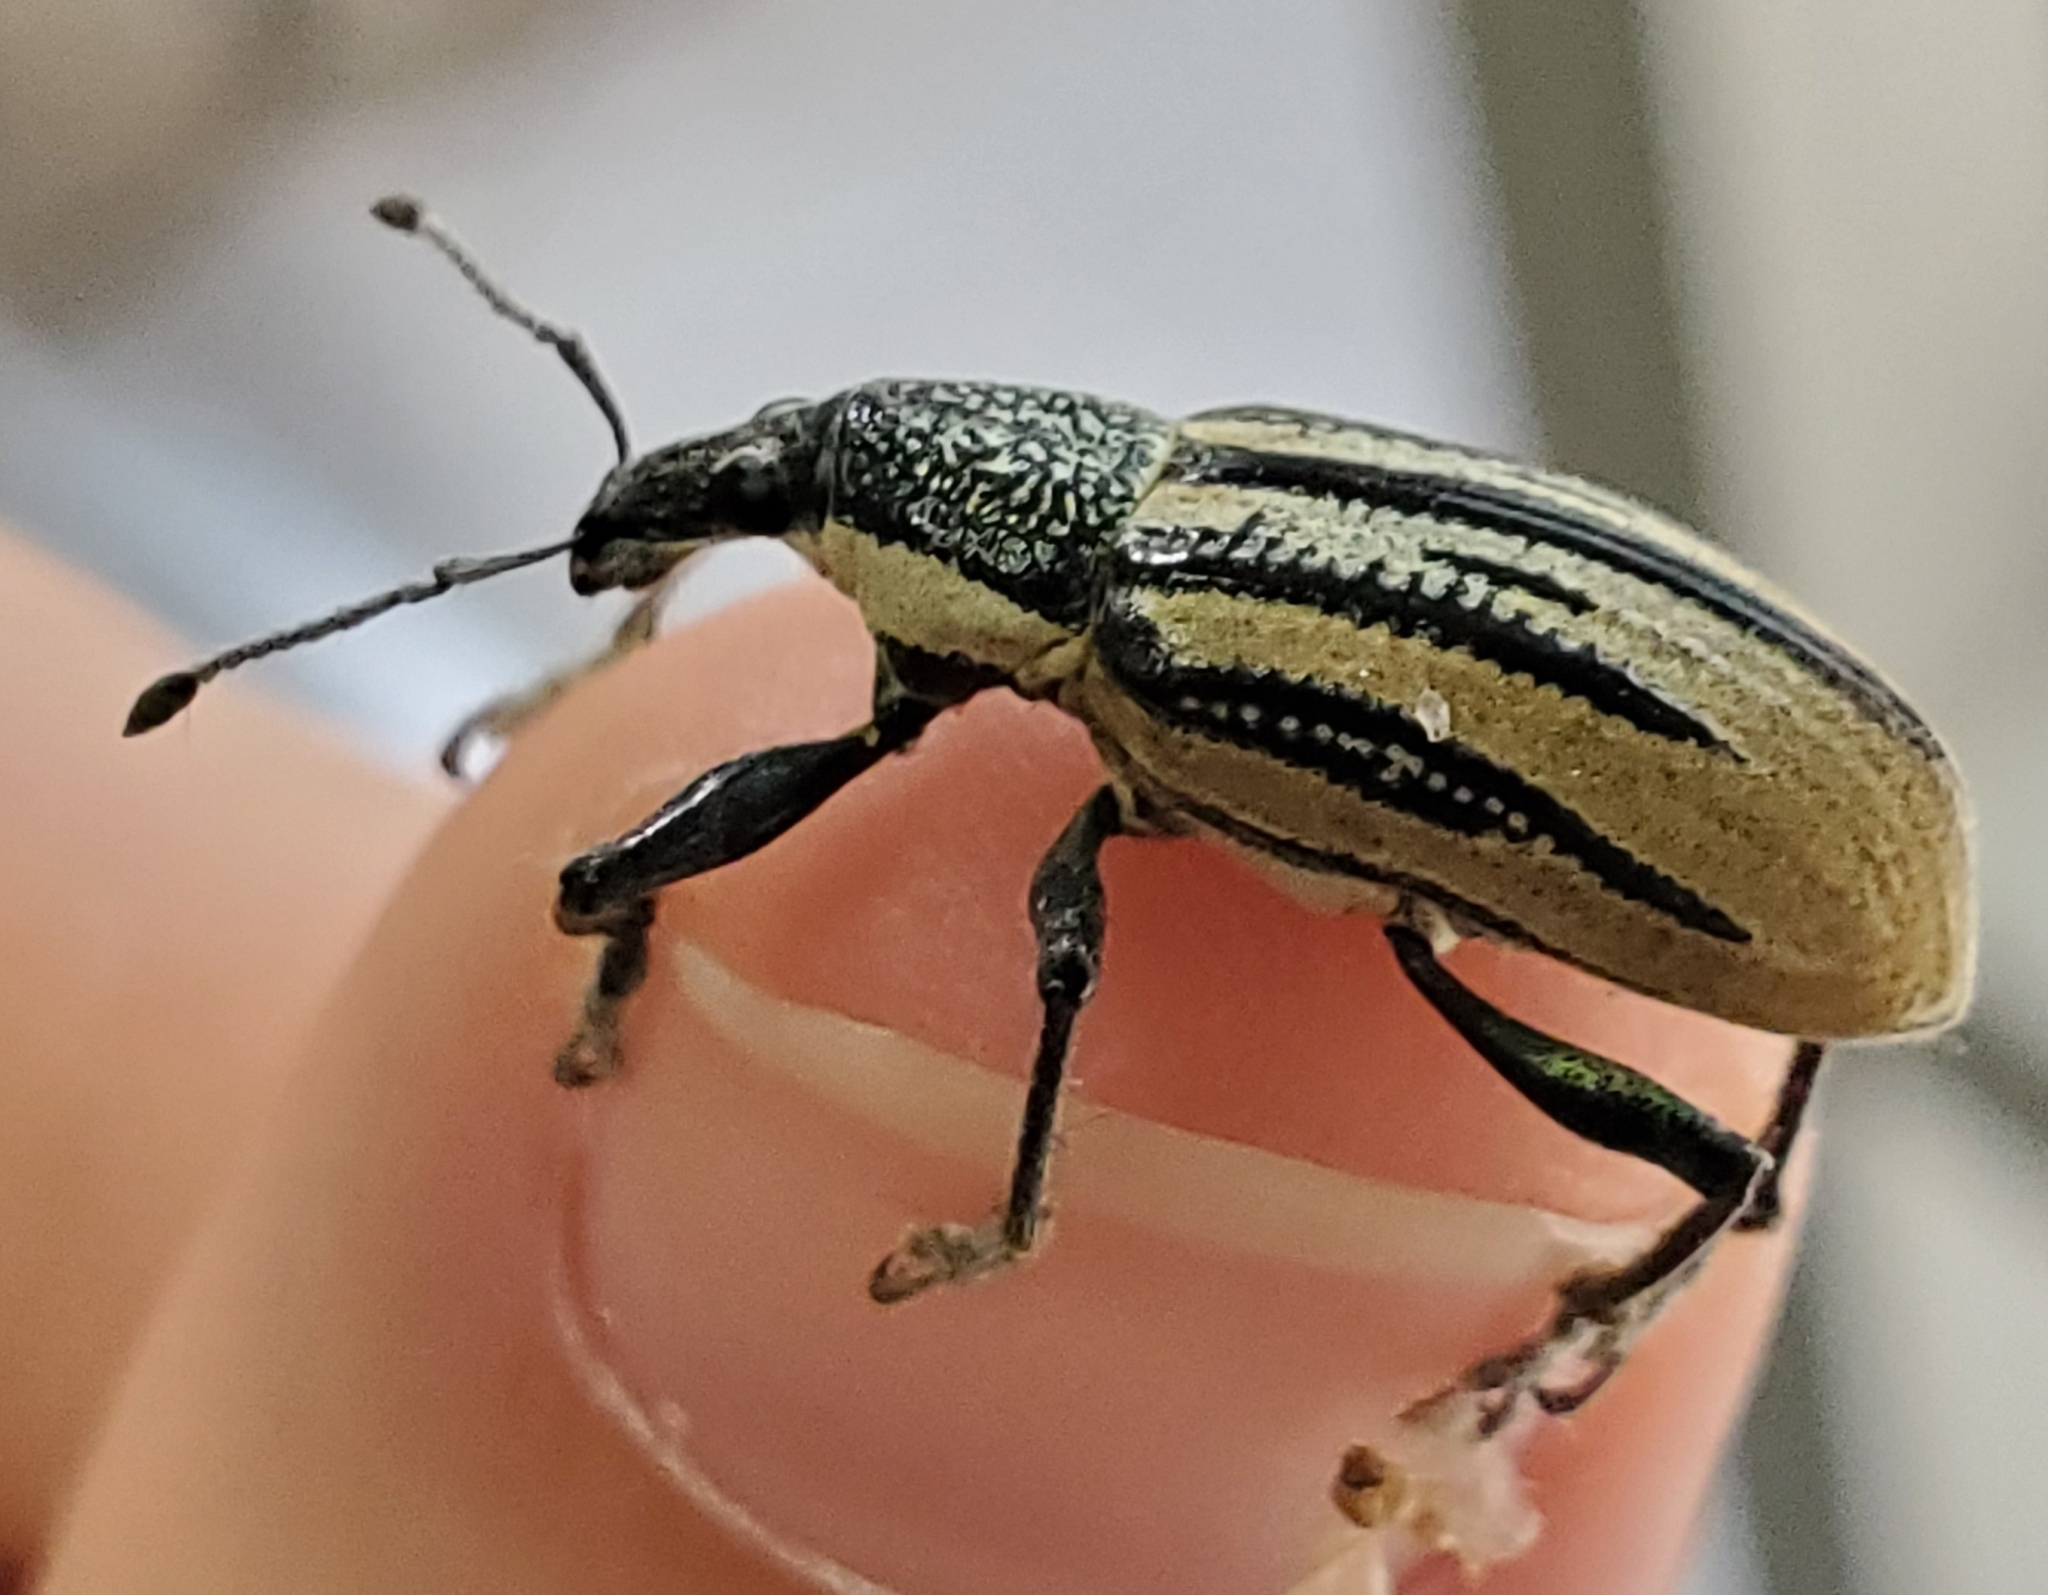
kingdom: Animalia
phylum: Arthropoda
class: Insecta
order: Coleoptera
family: Curculionidae
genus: Diaprepes
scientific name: Diaprepes abbreviatus
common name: Root weevil
